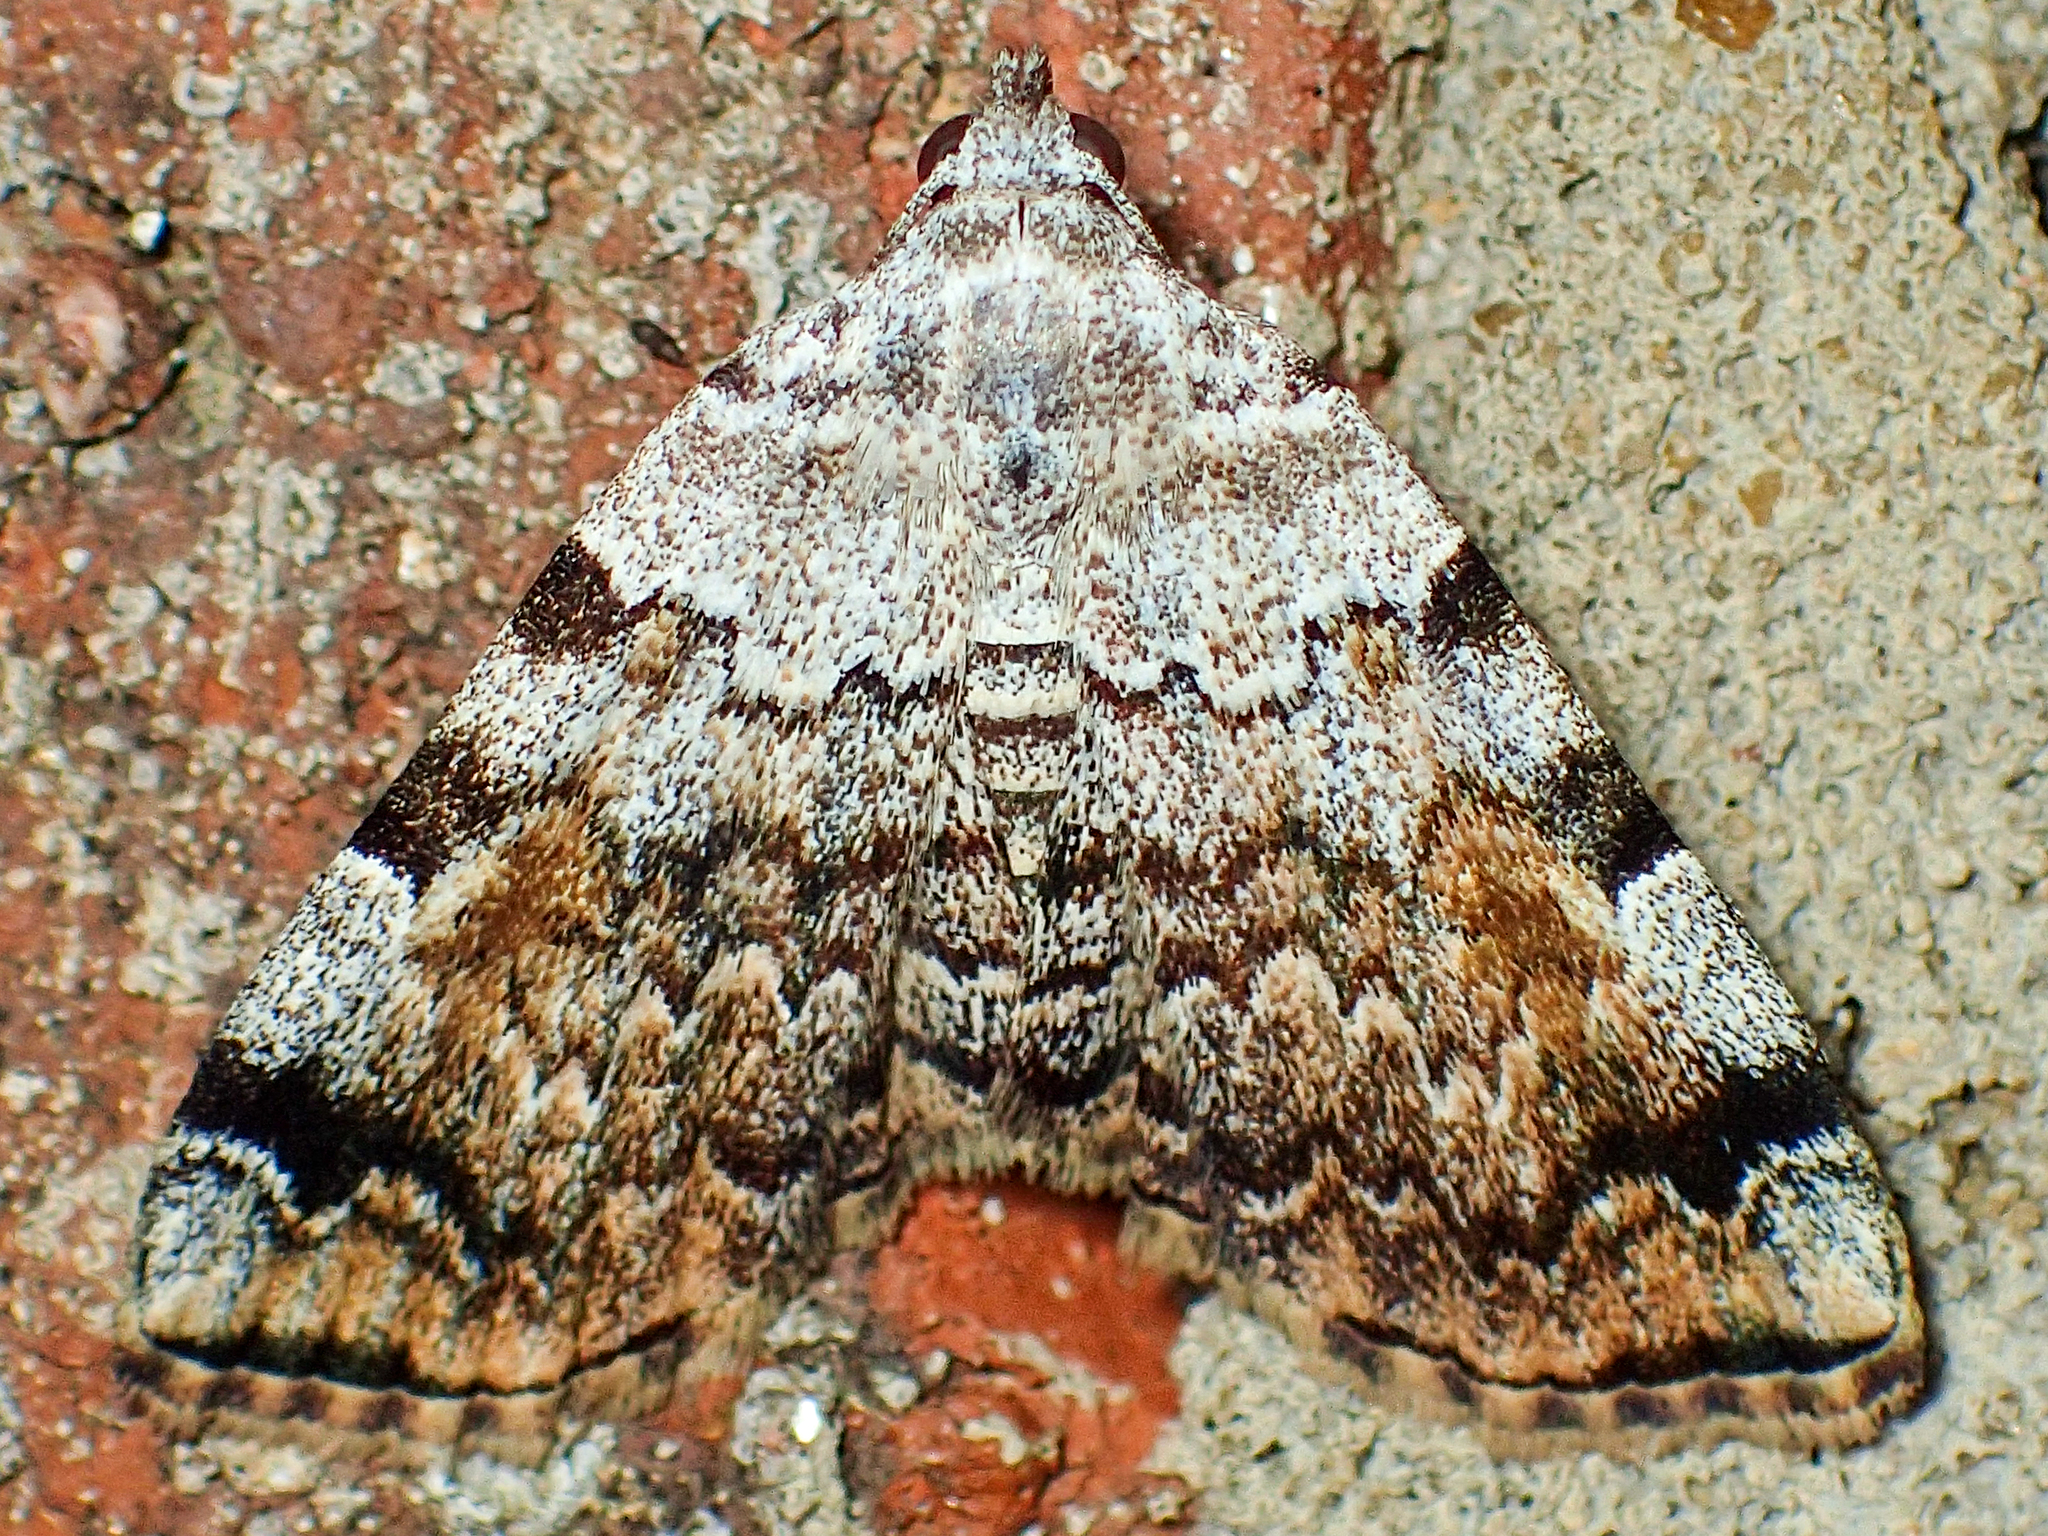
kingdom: Animalia
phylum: Arthropoda
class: Insecta
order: Lepidoptera
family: Erebidae
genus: Idia
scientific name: Idia americalis
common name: American idia moth
